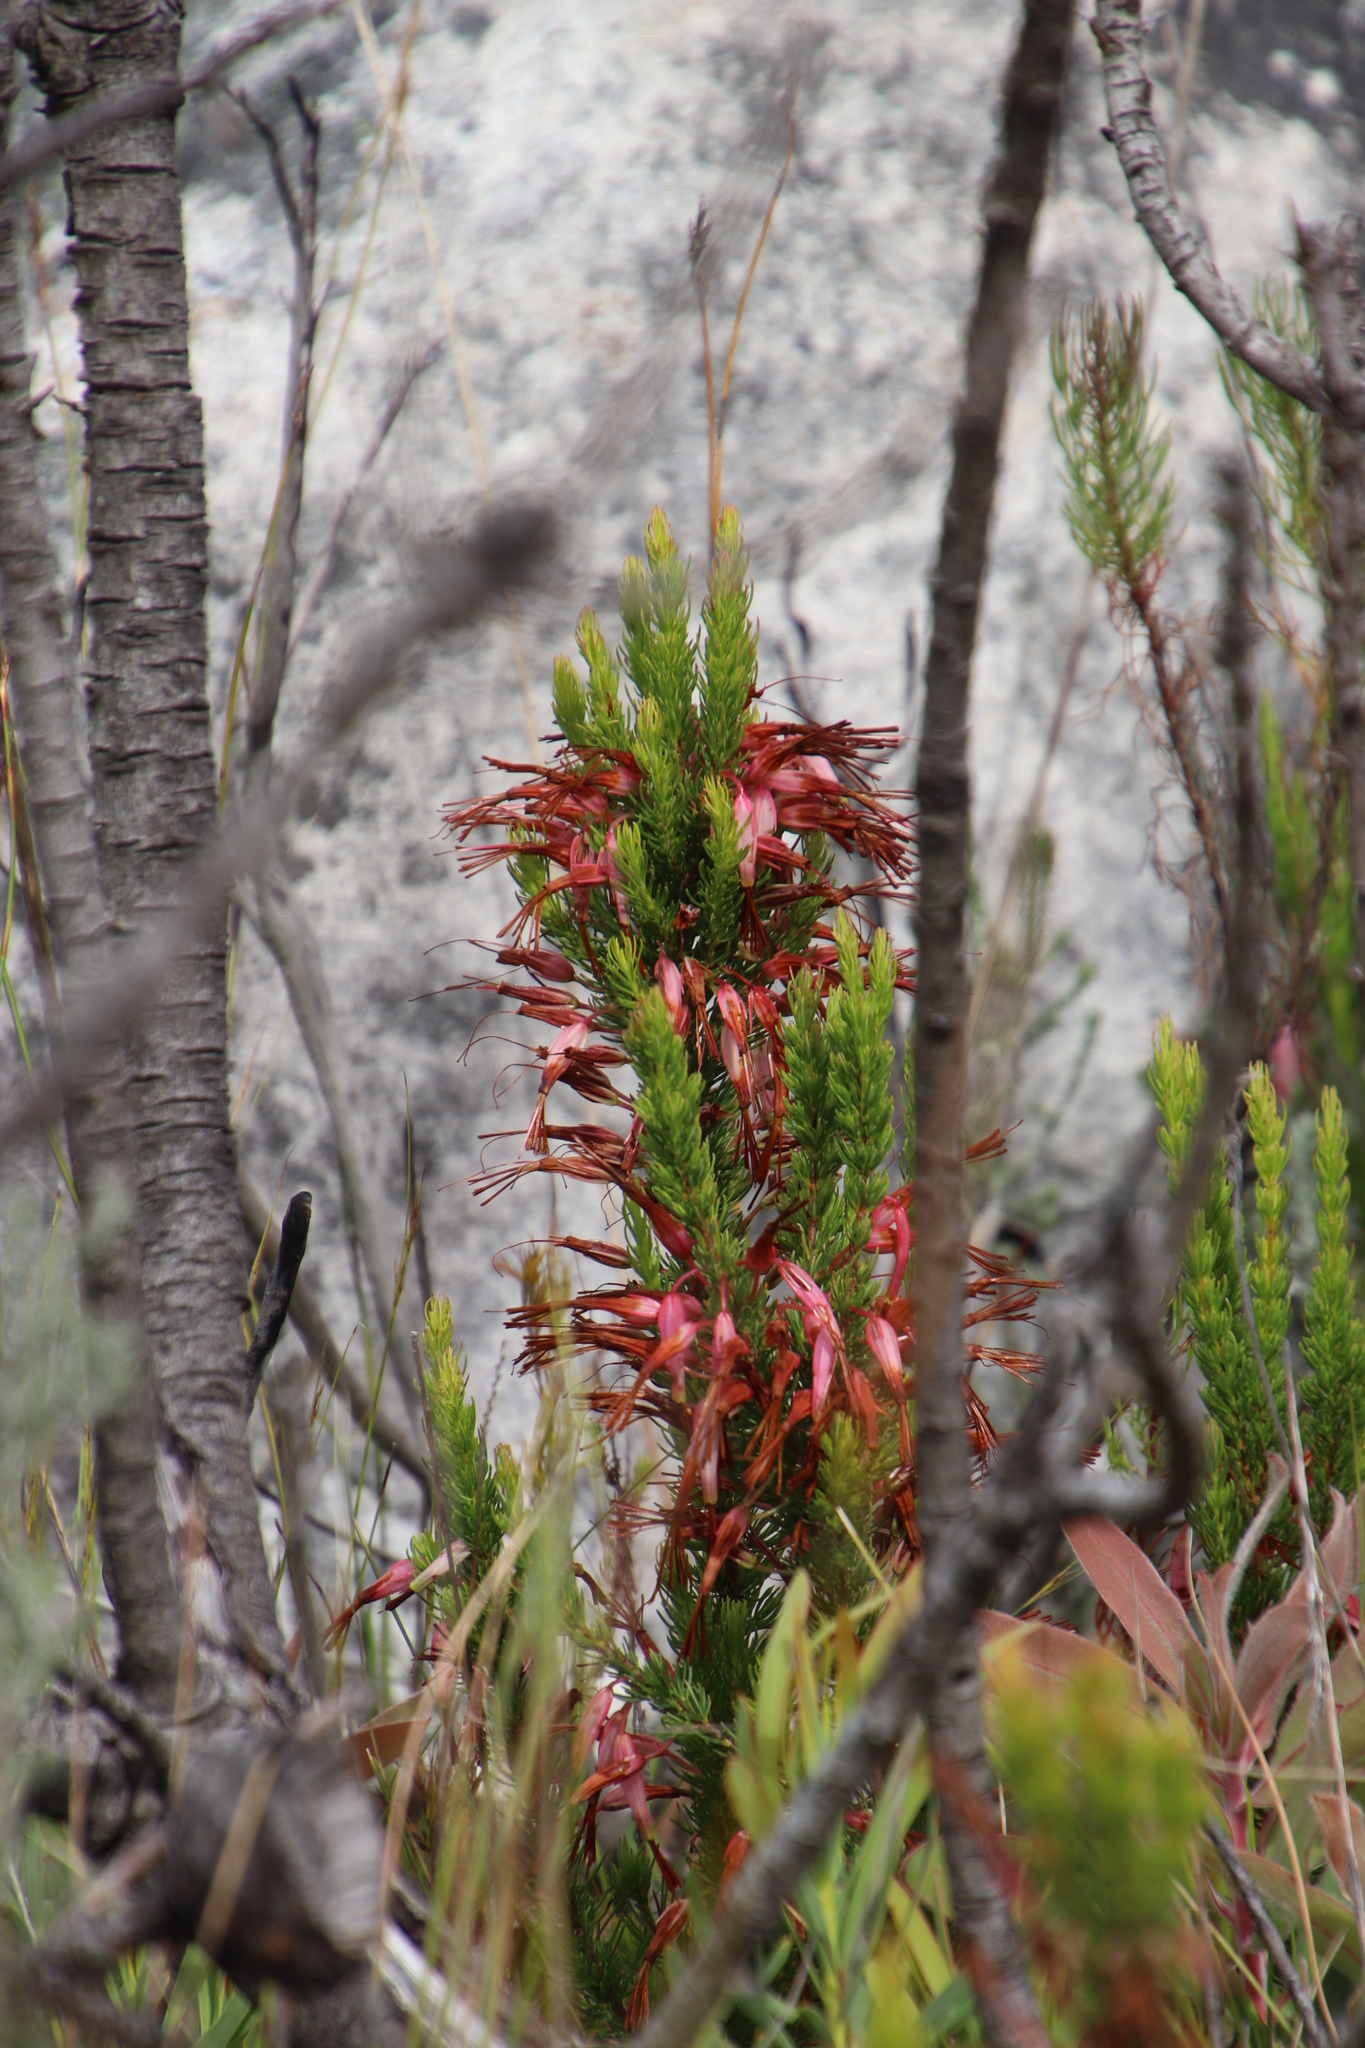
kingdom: Plantae
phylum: Tracheophyta
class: Magnoliopsida
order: Ericales
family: Ericaceae
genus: Erica
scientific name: Erica plukenetii
